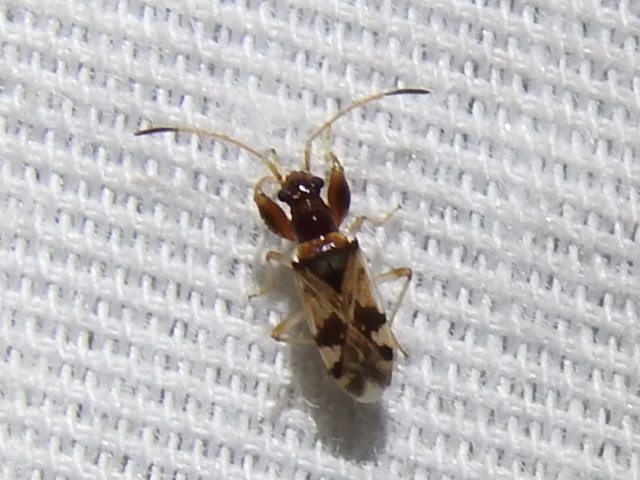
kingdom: Animalia
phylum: Arthropoda
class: Insecta
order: Hemiptera
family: Rhyparochromidae
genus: Pseudopamera
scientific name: Pseudopamera nitidula
